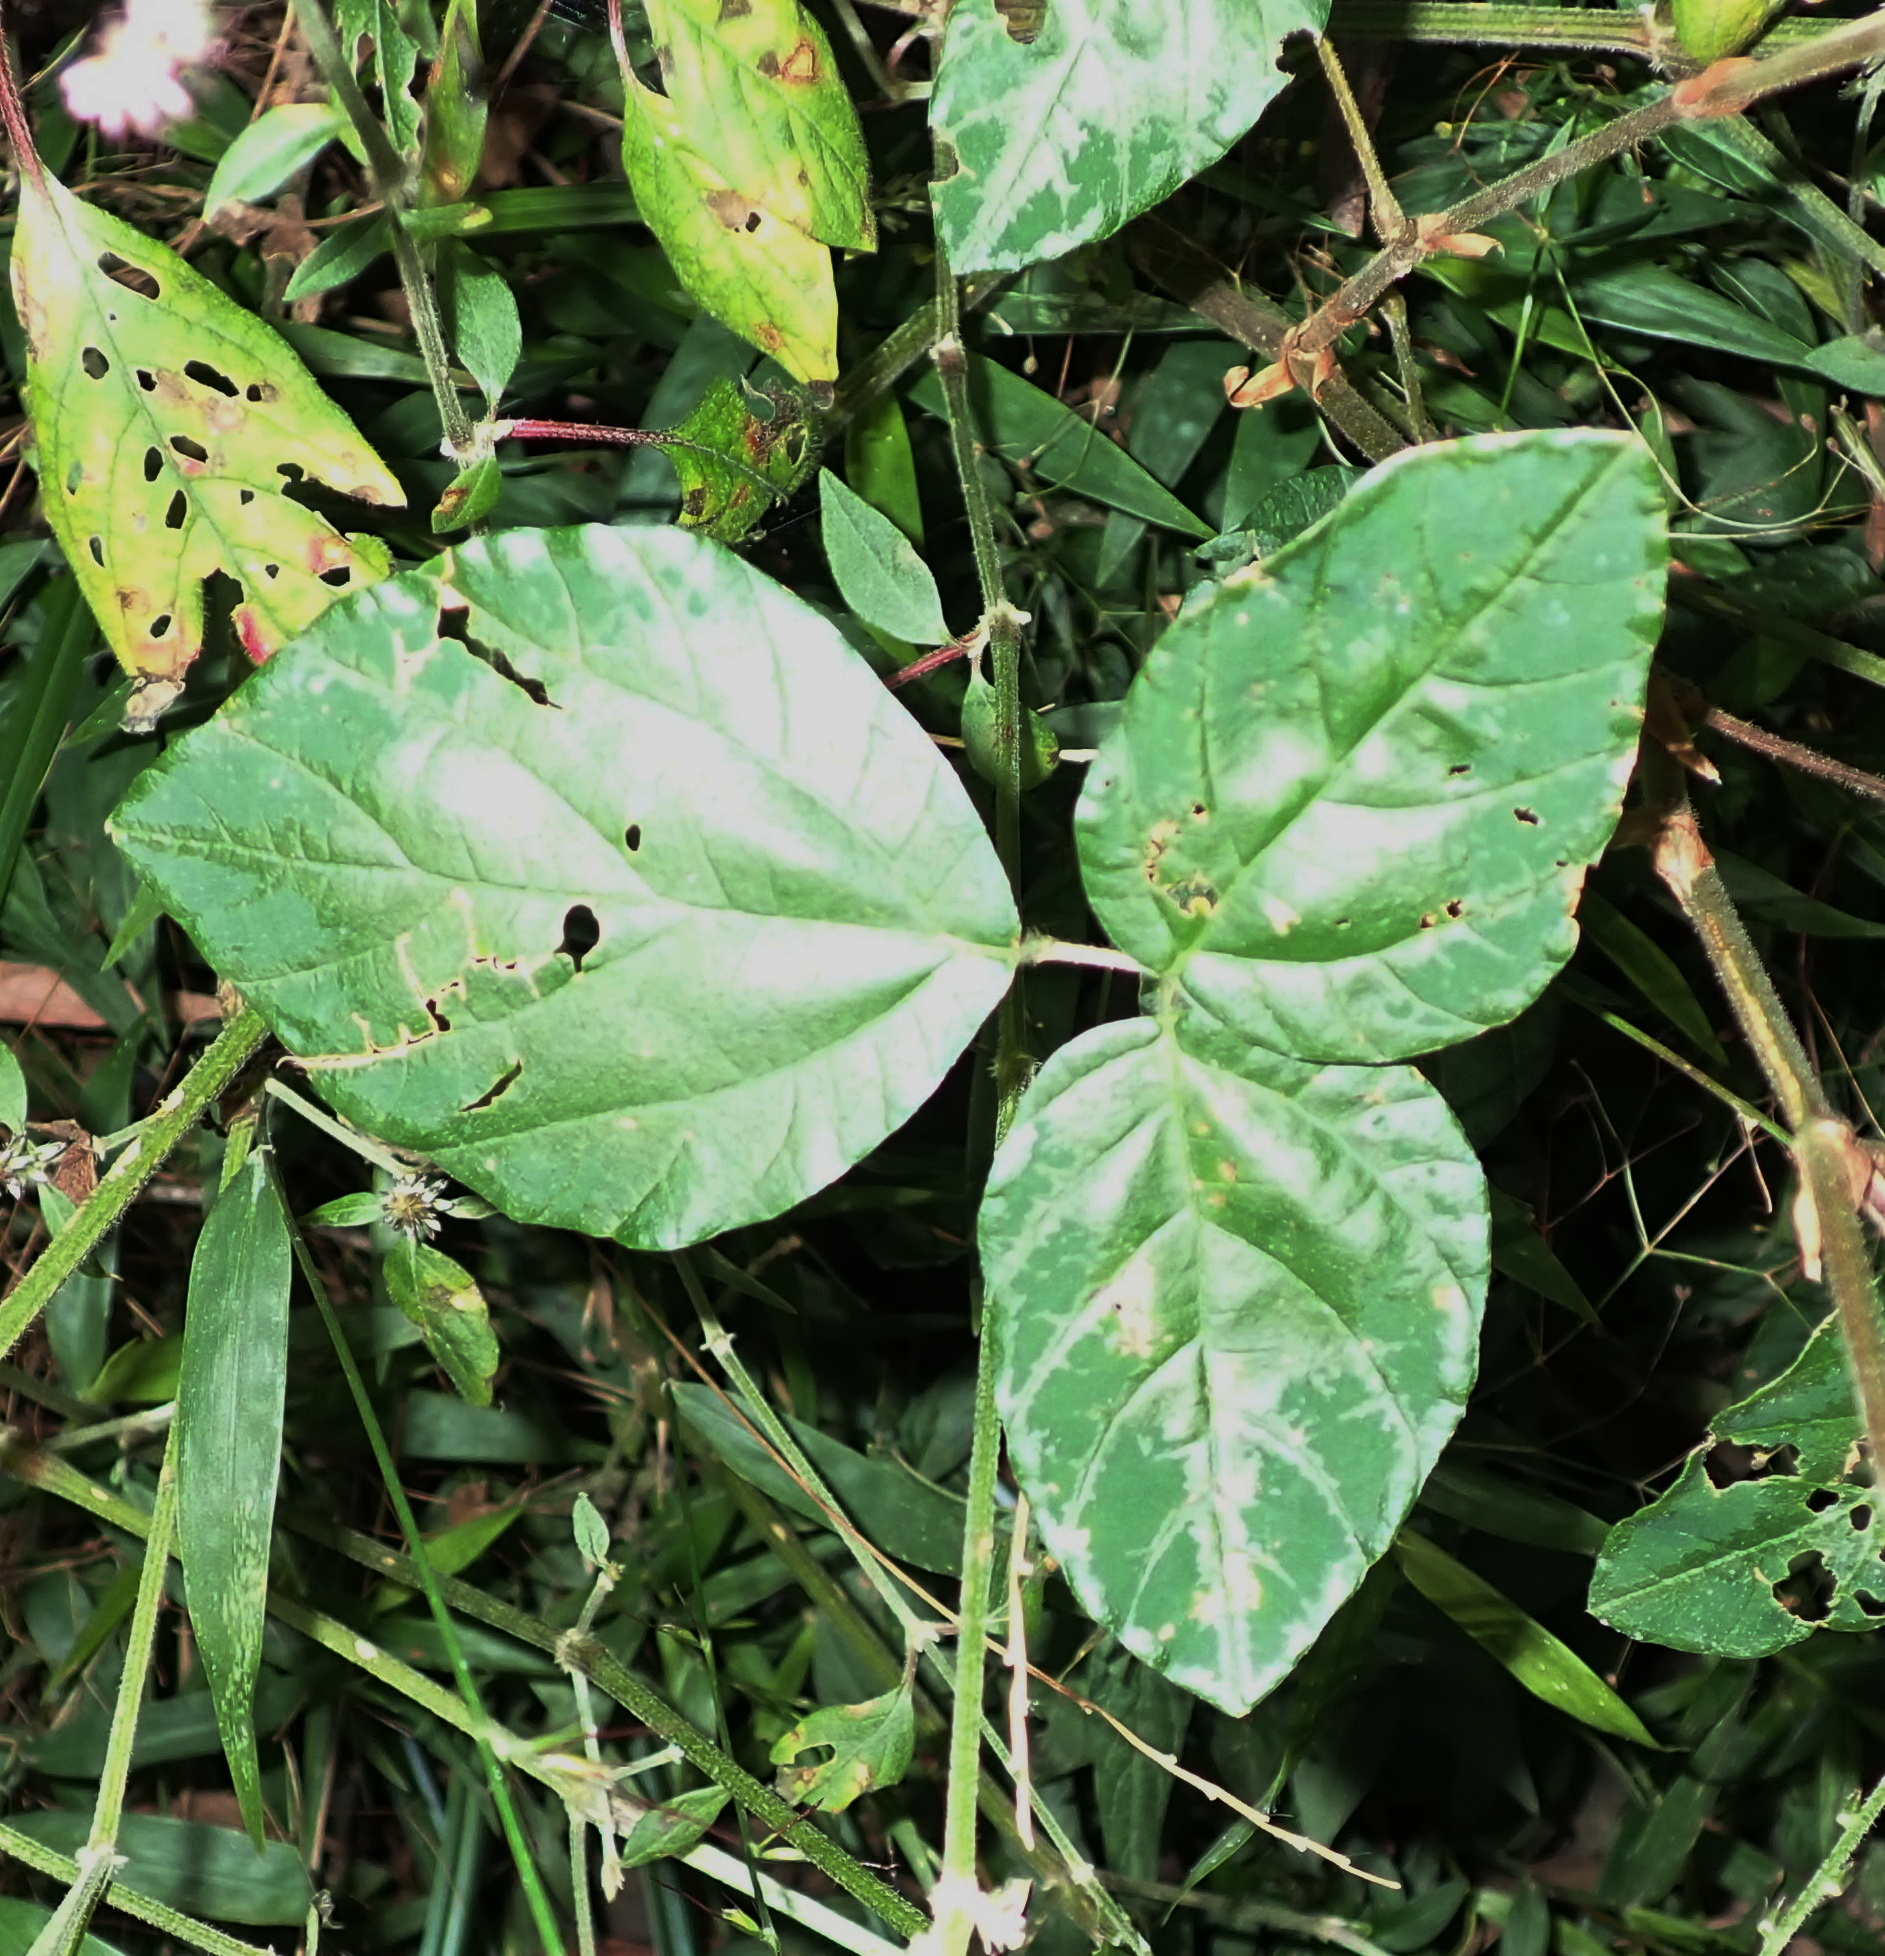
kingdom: Plantae
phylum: Tracheophyta
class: Magnoliopsida
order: Fabales
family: Fabaceae
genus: Hylodesmum
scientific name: Hylodesmum repandum
